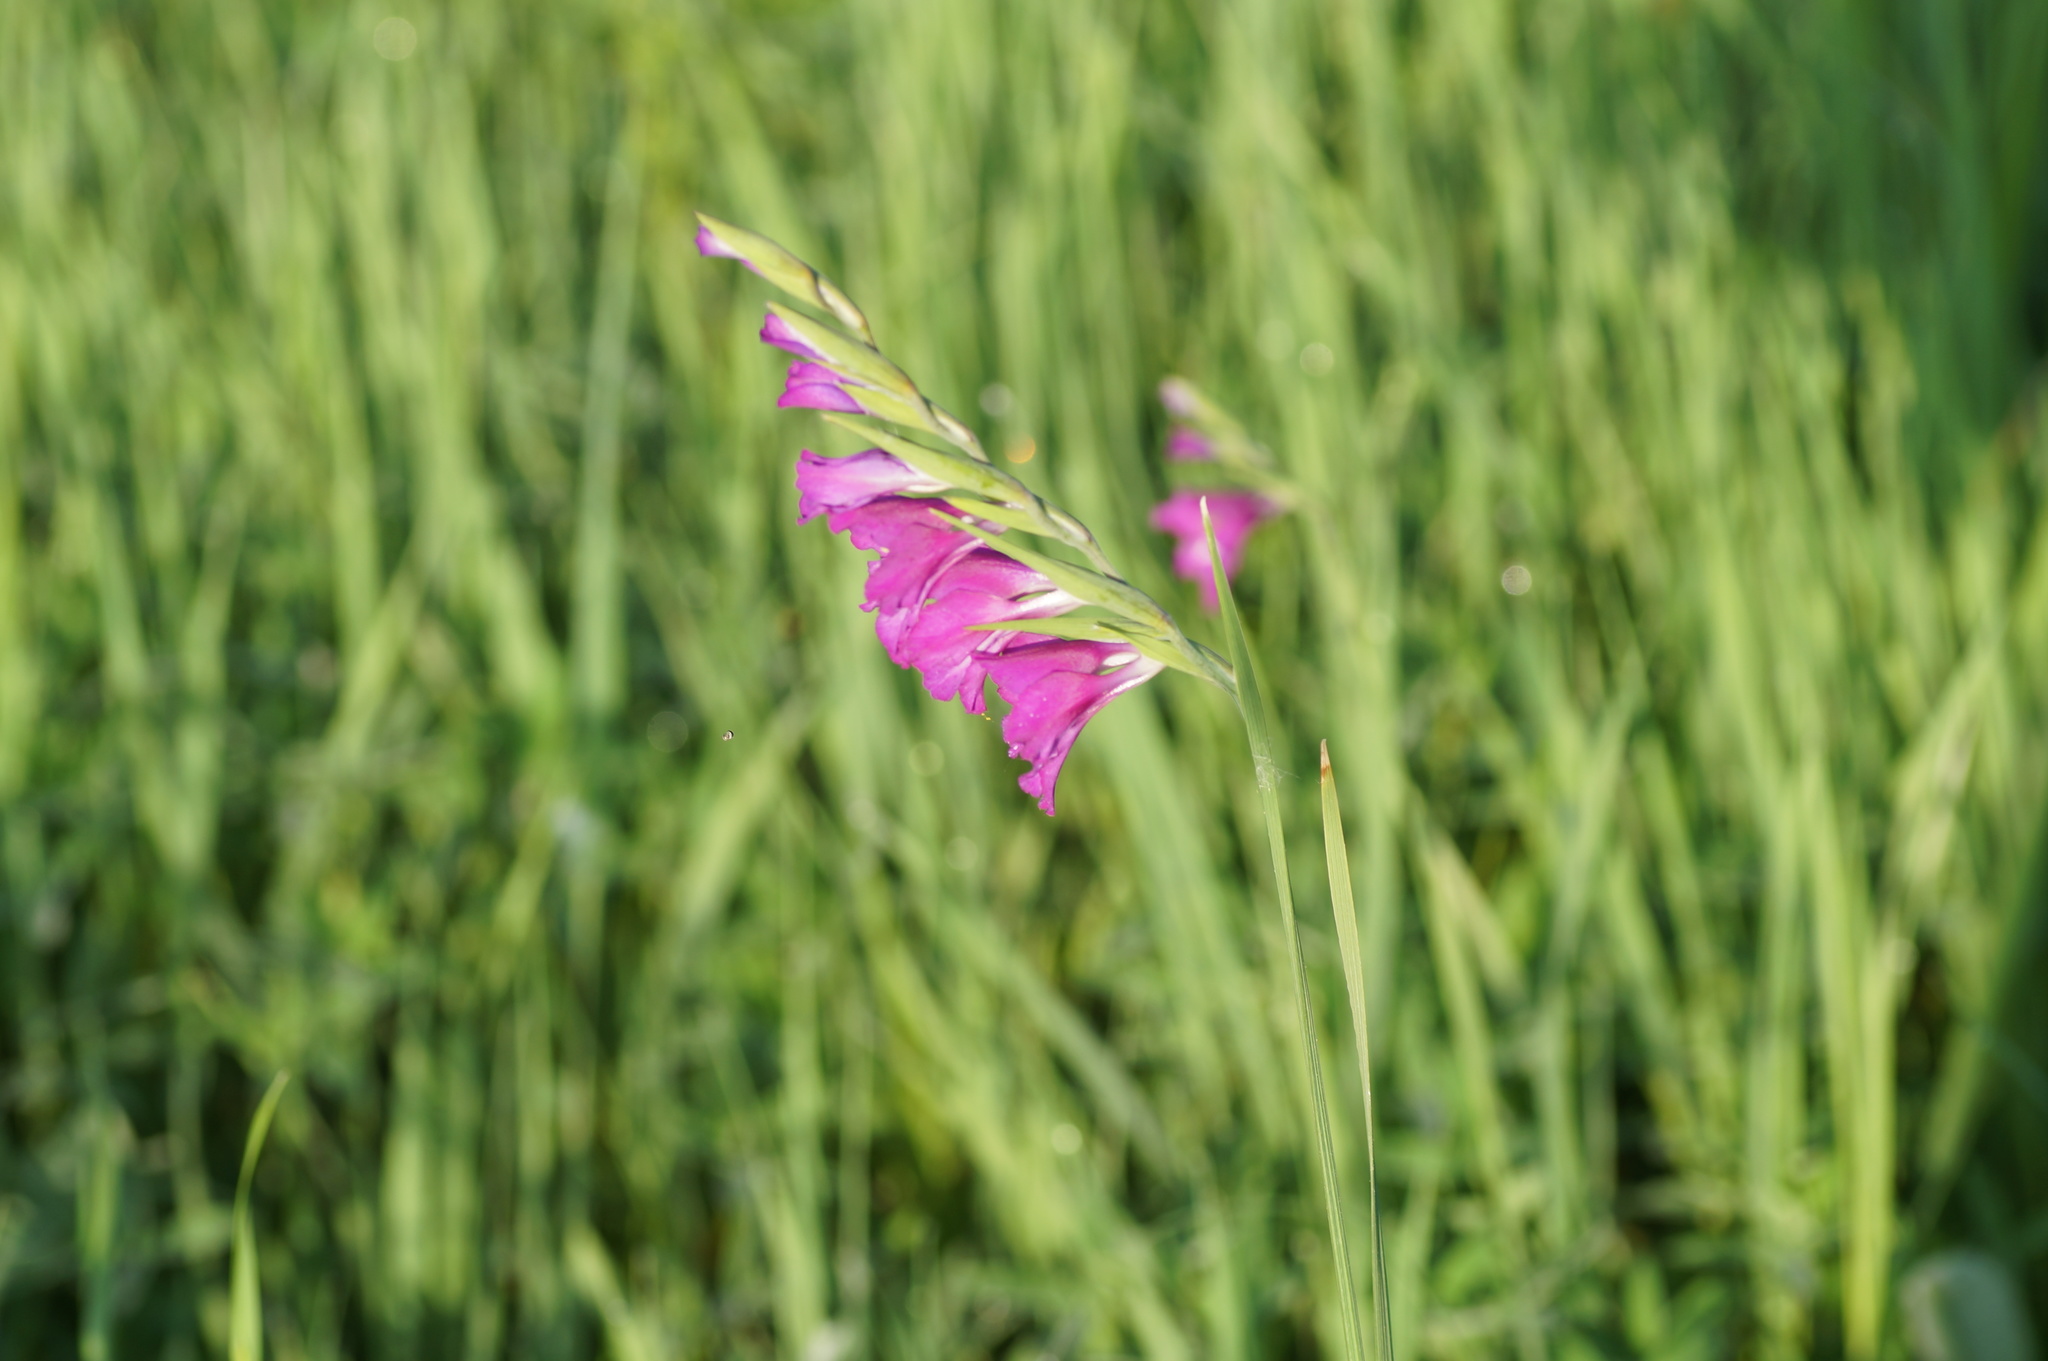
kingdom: Plantae
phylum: Tracheophyta
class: Liliopsida
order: Asparagales
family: Iridaceae
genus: Gladiolus
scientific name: Gladiolus imbricatus
